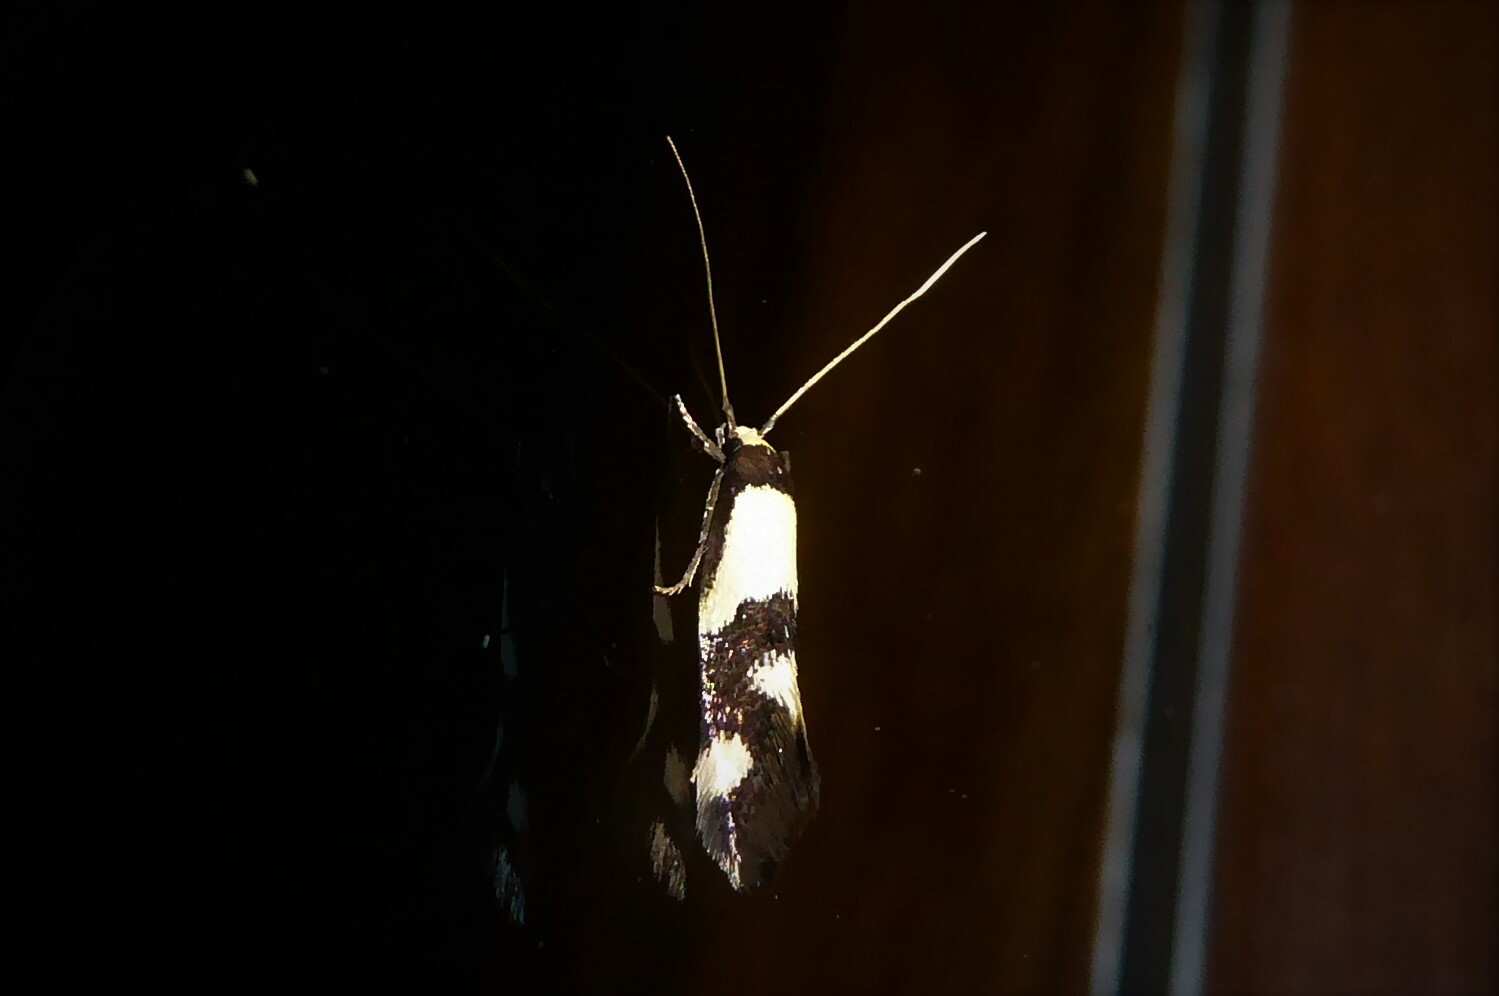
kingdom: Animalia
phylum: Arthropoda
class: Insecta
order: Lepidoptera
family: Tineidae
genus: Opogona
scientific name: Opogona comptella
